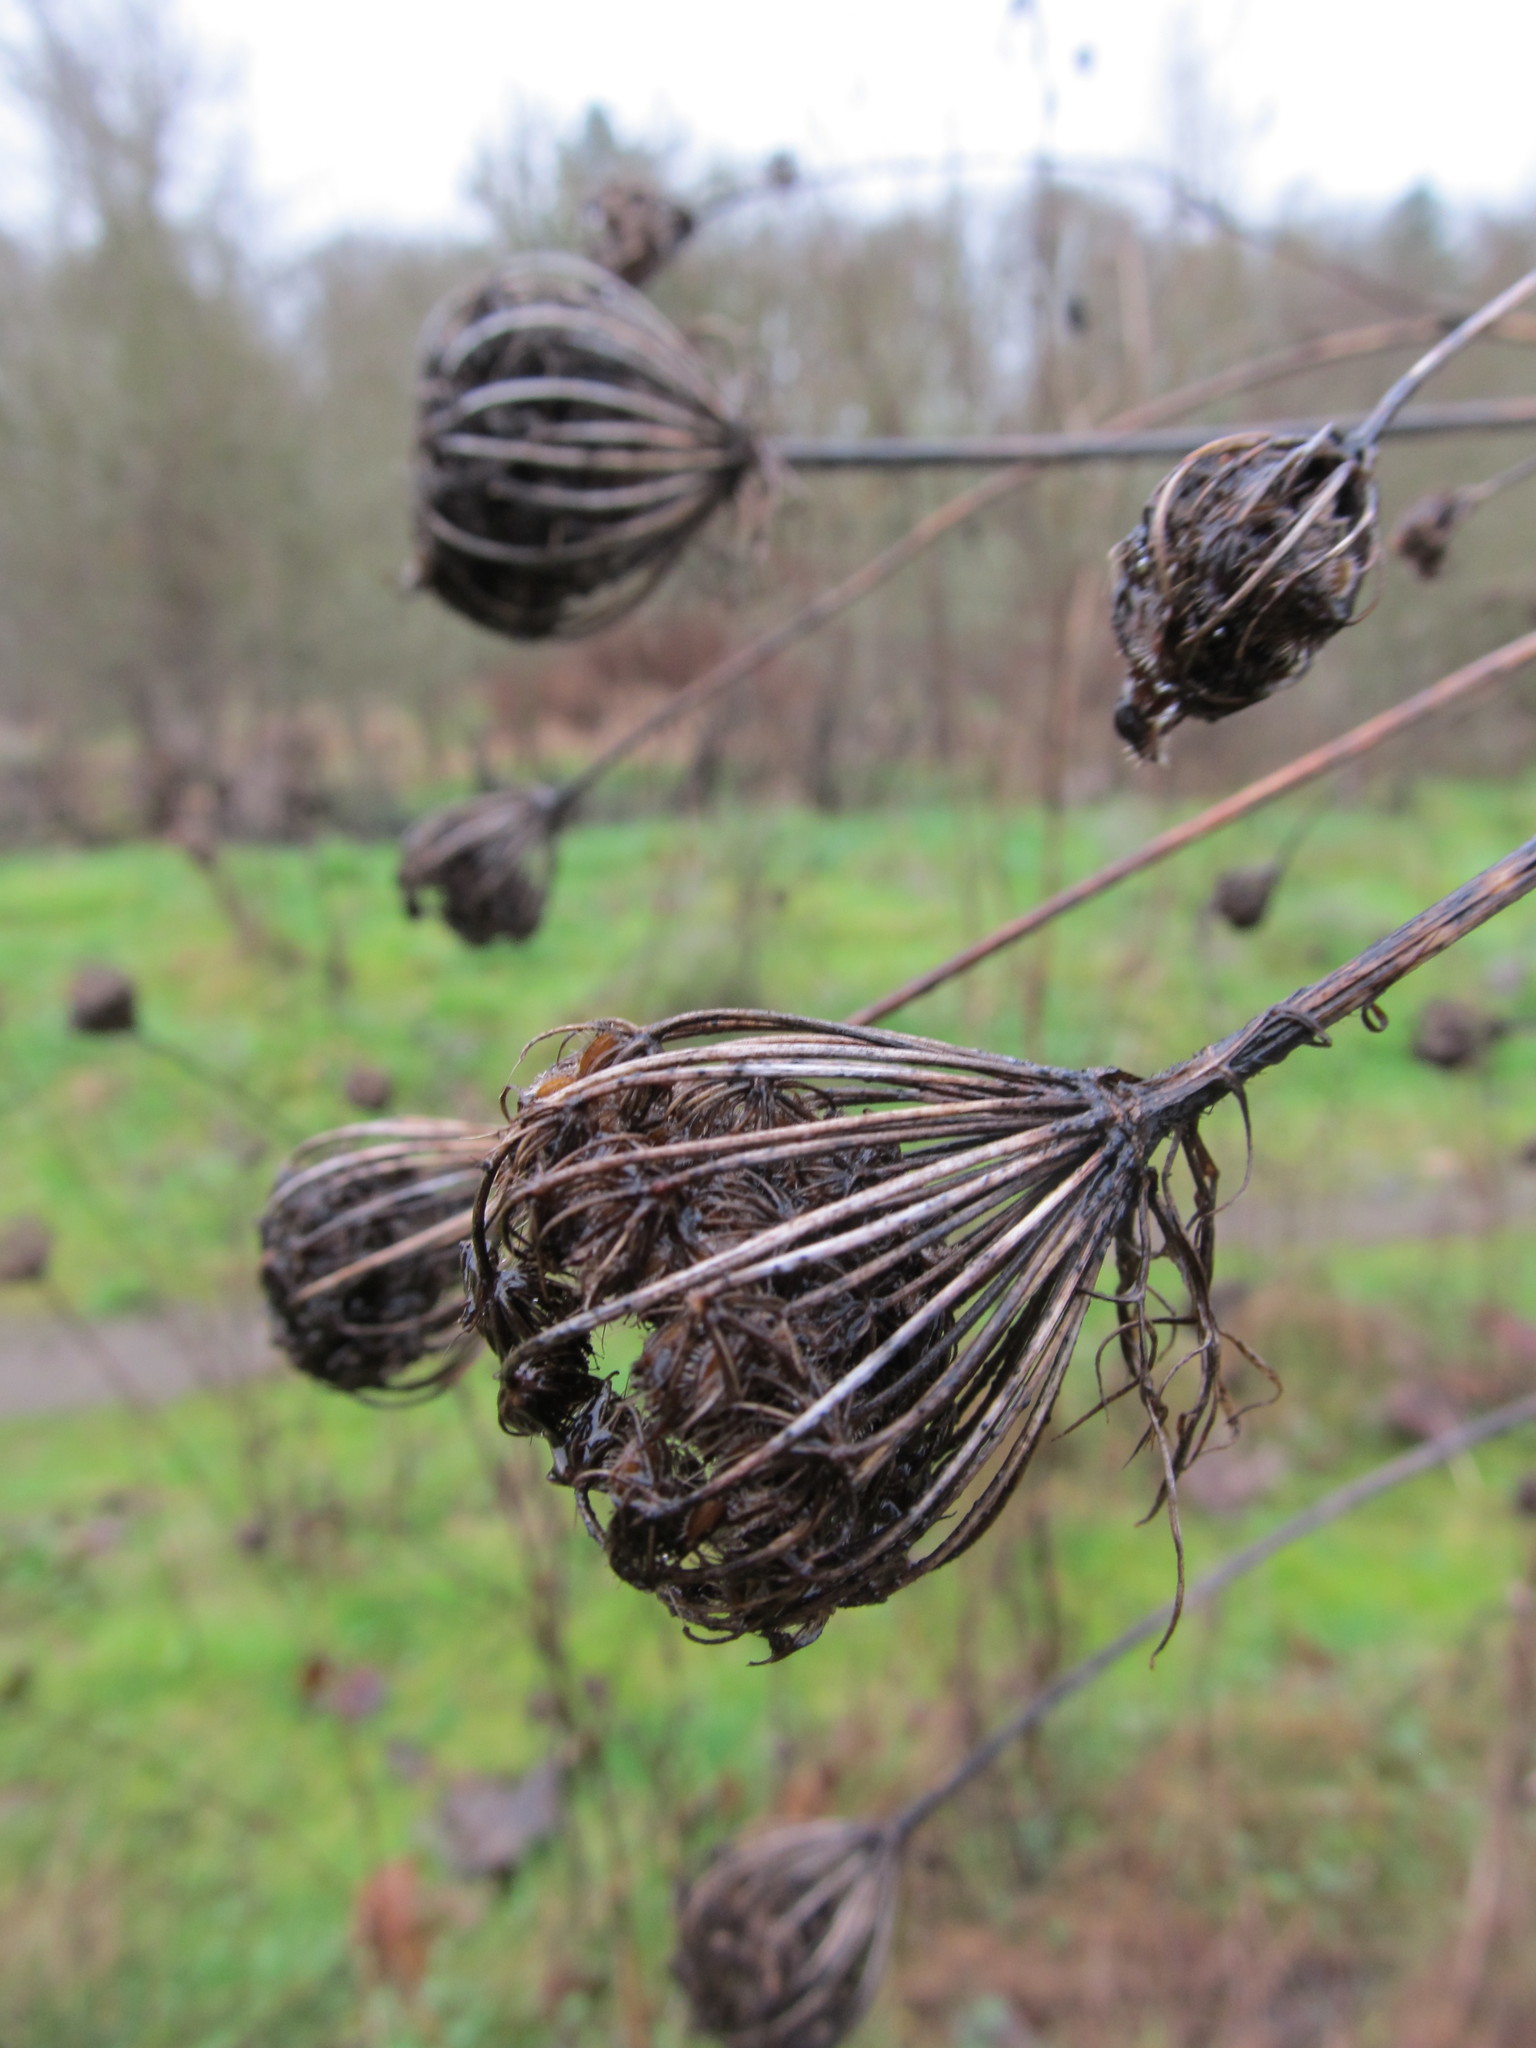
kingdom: Plantae
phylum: Tracheophyta
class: Magnoliopsida
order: Apiales
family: Apiaceae
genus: Daucus
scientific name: Daucus carota
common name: Wild carrot
